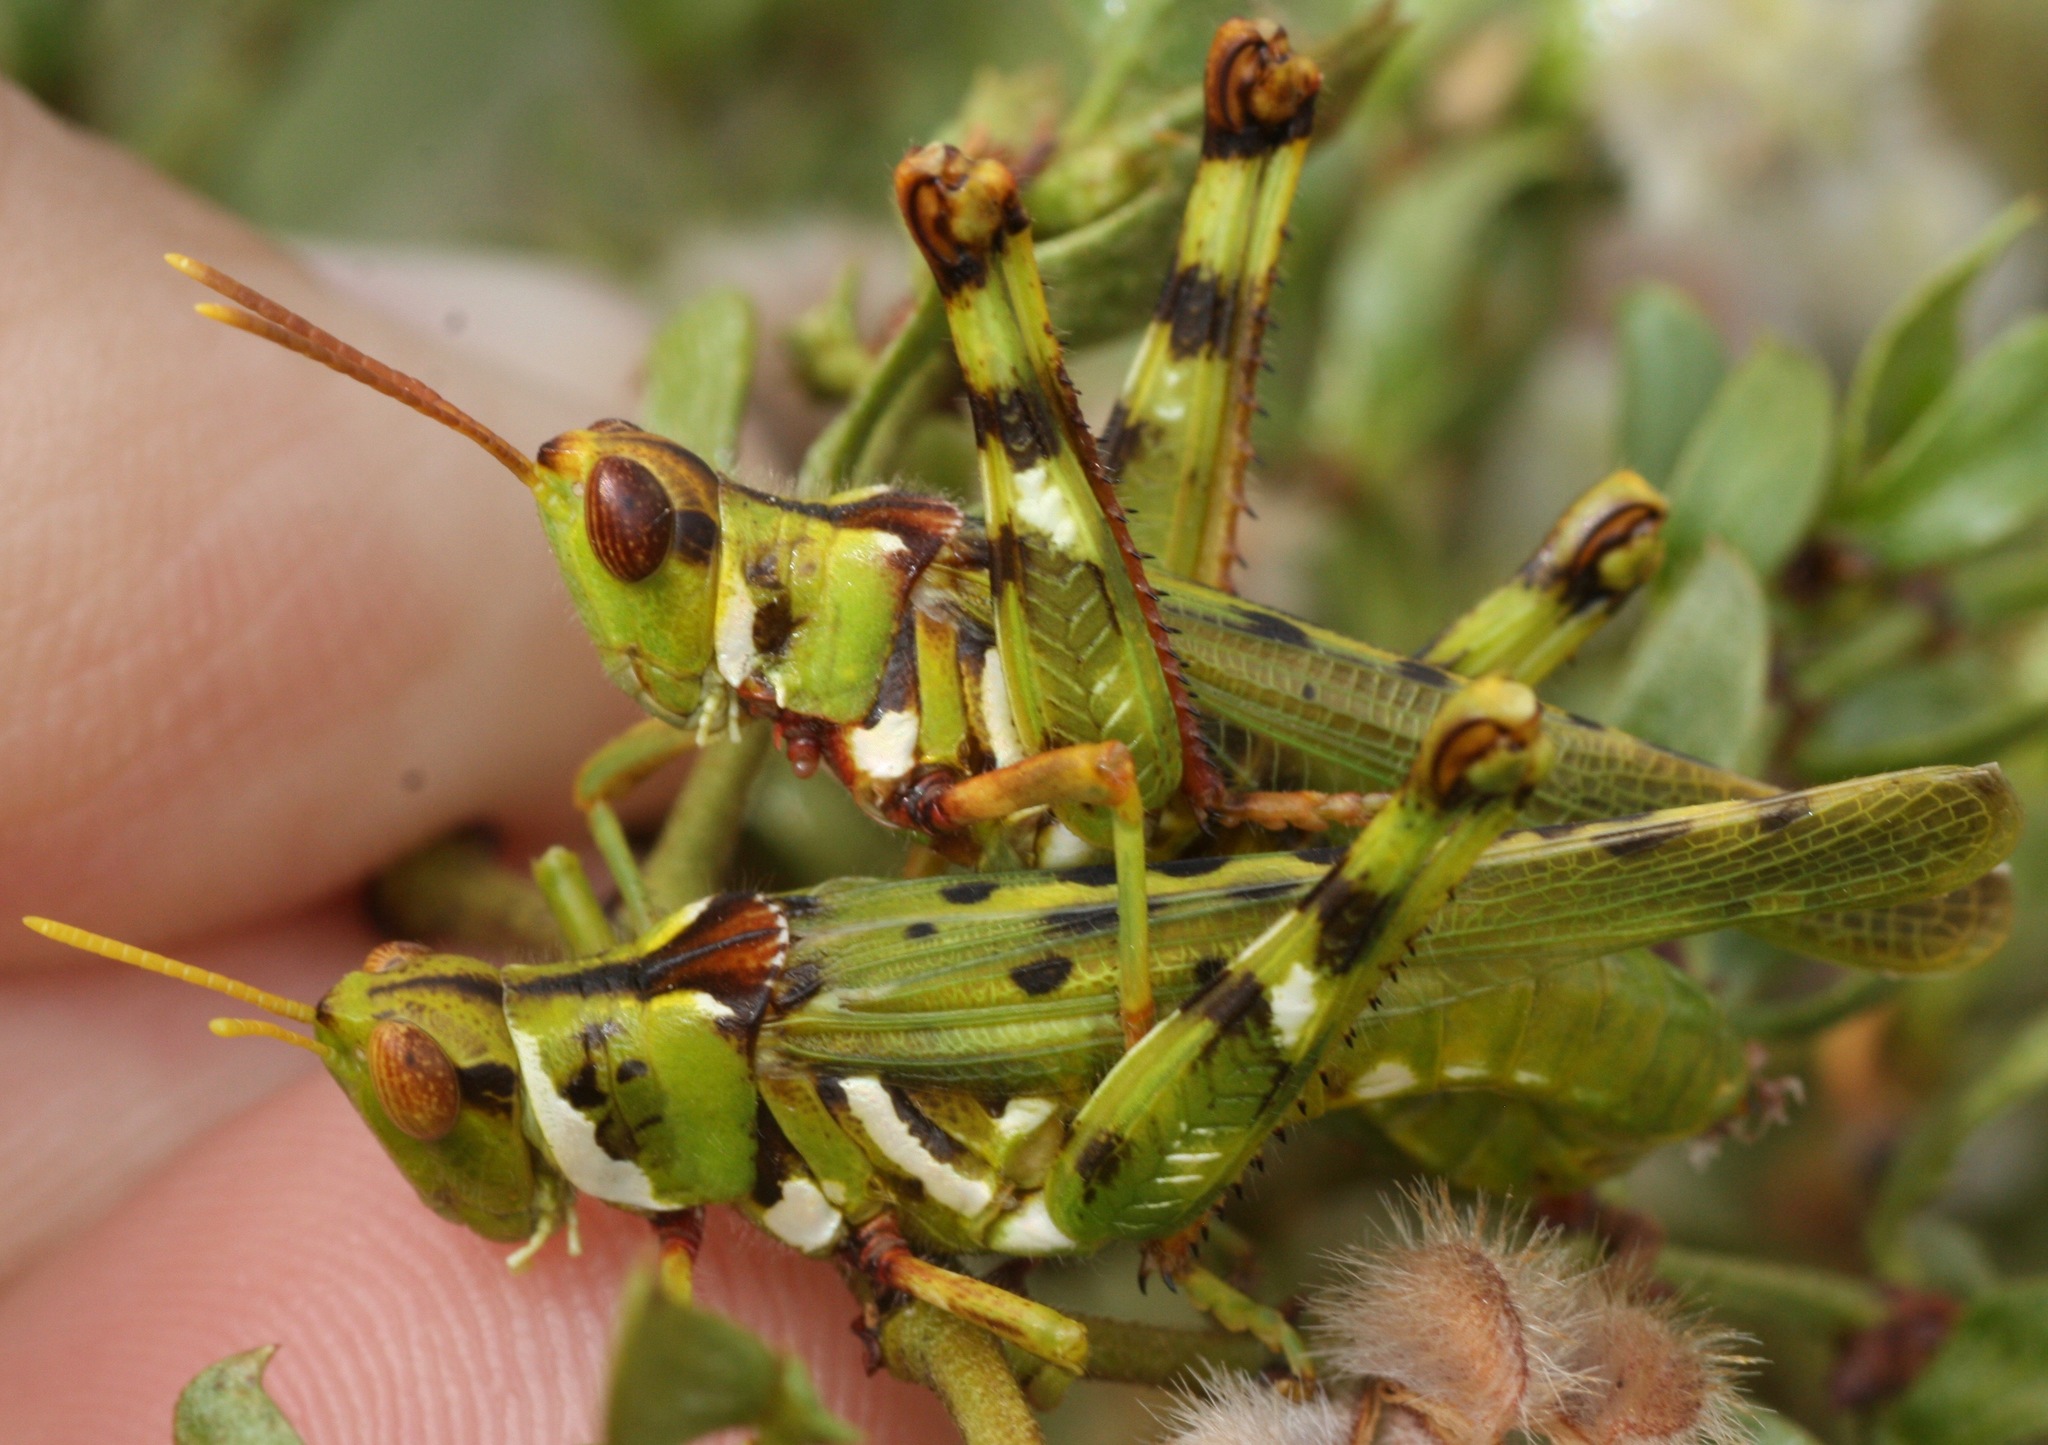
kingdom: Animalia
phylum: Arthropoda
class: Insecta
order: Orthoptera
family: Acrididae
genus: Bootettix
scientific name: Bootettix argentatus
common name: Creosote bush grasshopper
